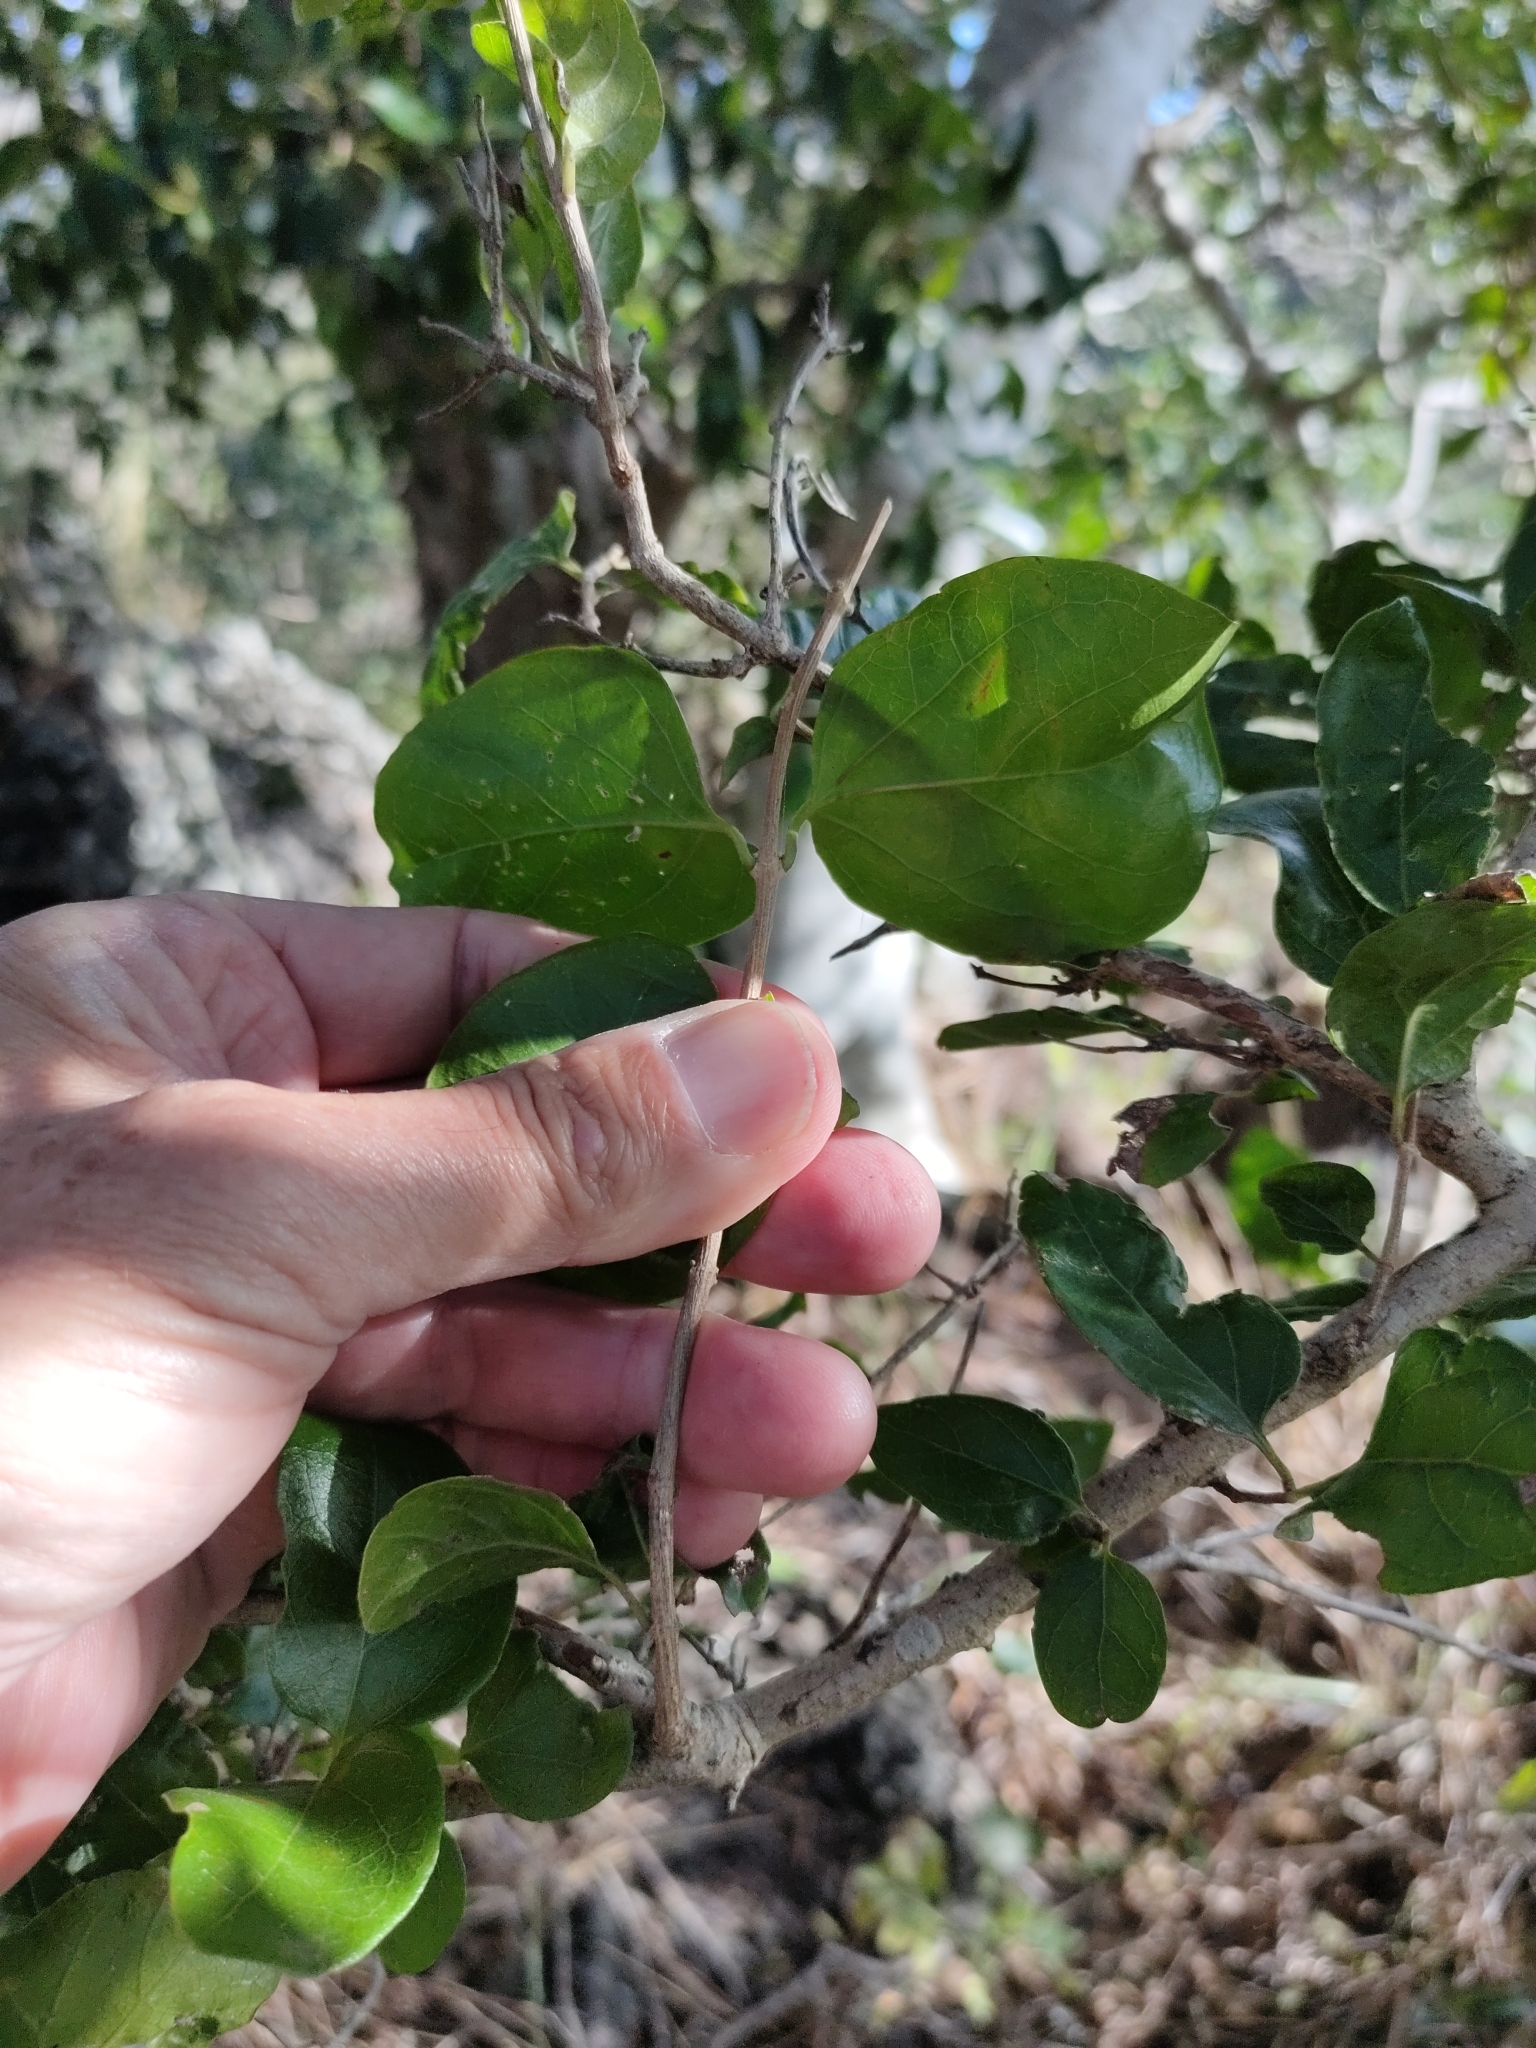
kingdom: Plantae
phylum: Tracheophyta
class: Magnoliopsida
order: Lamiales
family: Lamiaceae
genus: Glossocarya
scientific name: Glossocarya hemiderma
